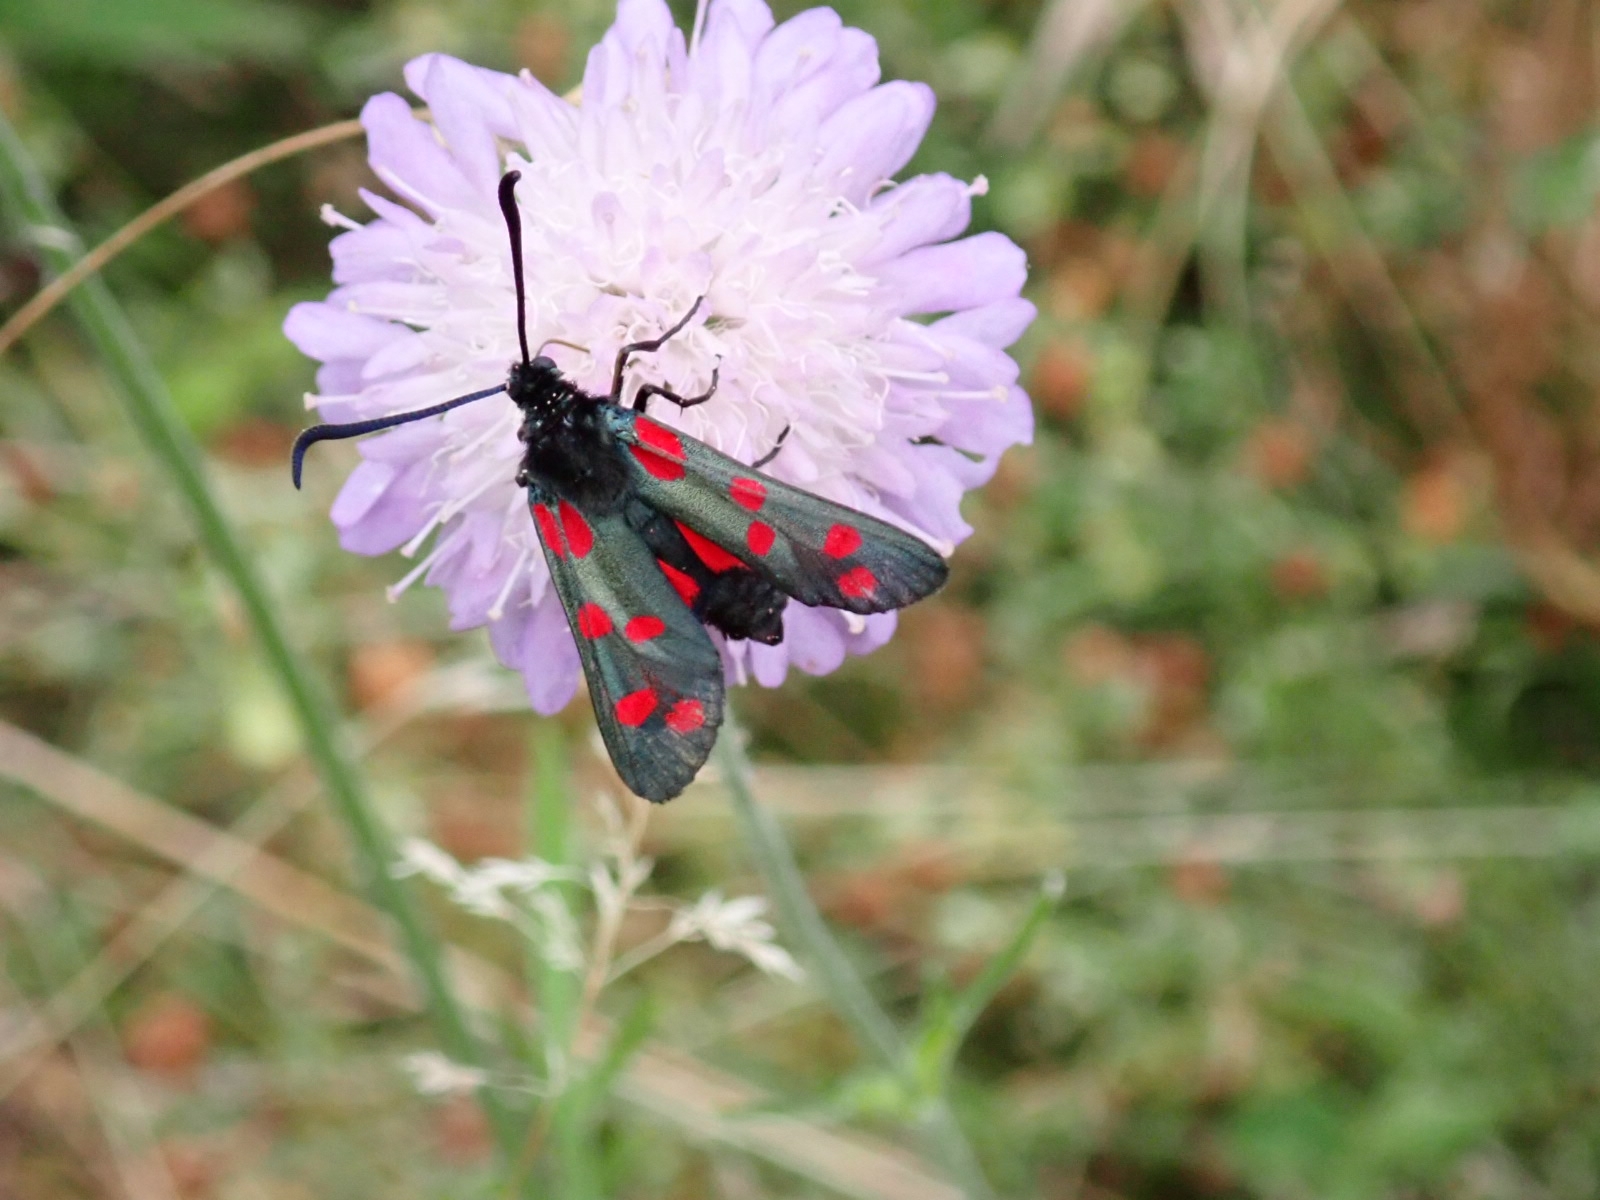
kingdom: Animalia
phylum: Arthropoda
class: Insecta
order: Lepidoptera
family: Zygaenidae
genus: Zygaena
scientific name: Zygaena filipendulae
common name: Six-spot burnet
